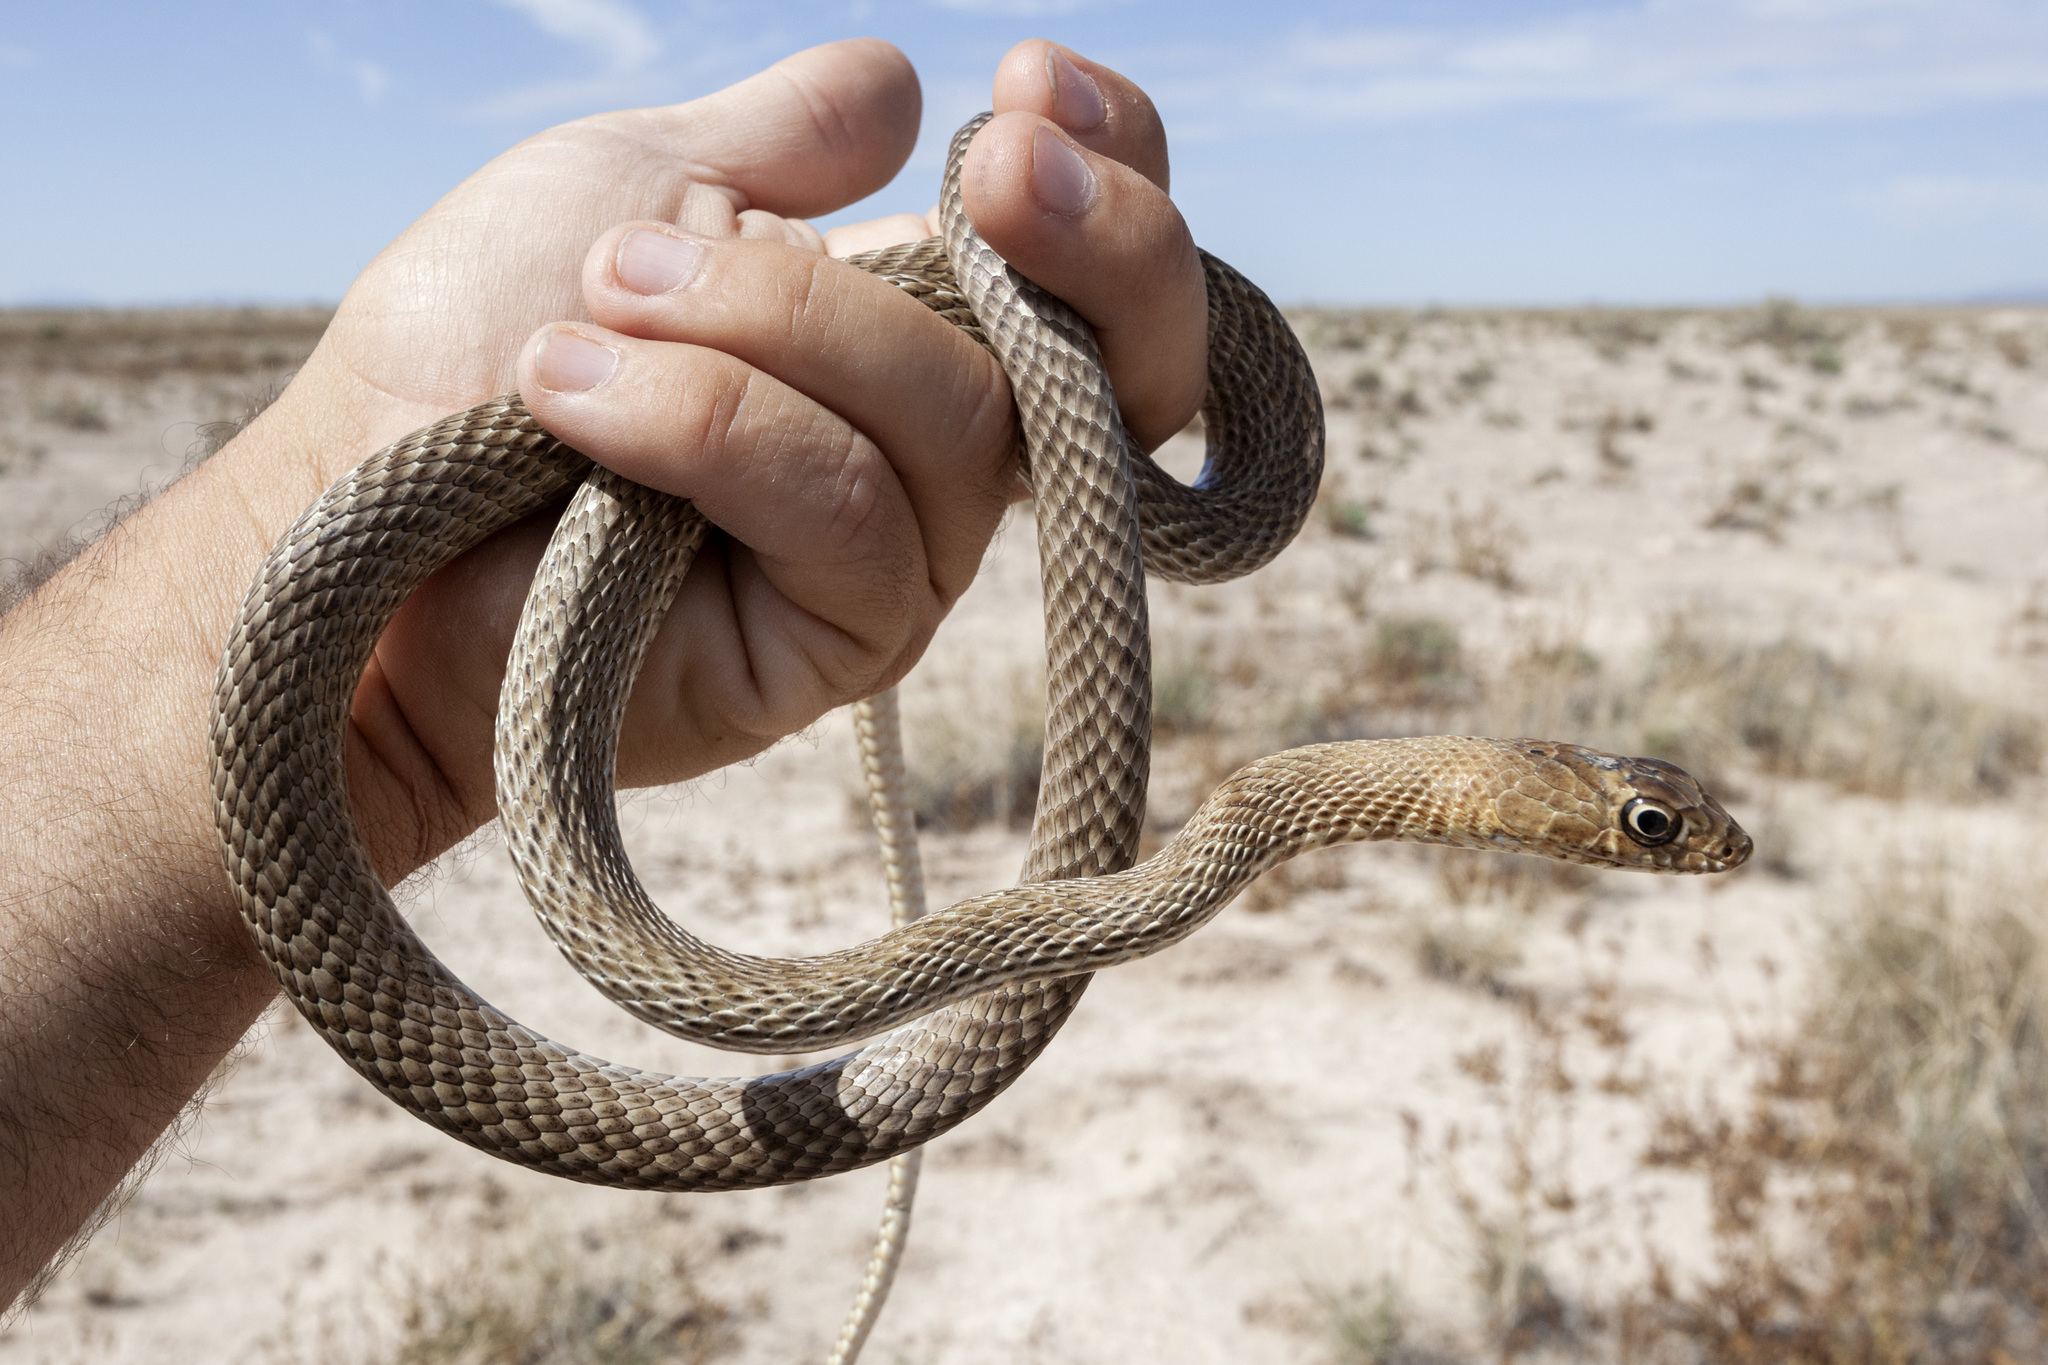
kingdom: Animalia
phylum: Chordata
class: Squamata
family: Colubridae
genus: Masticophis
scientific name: Masticophis flagellum
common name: Coachwhip
